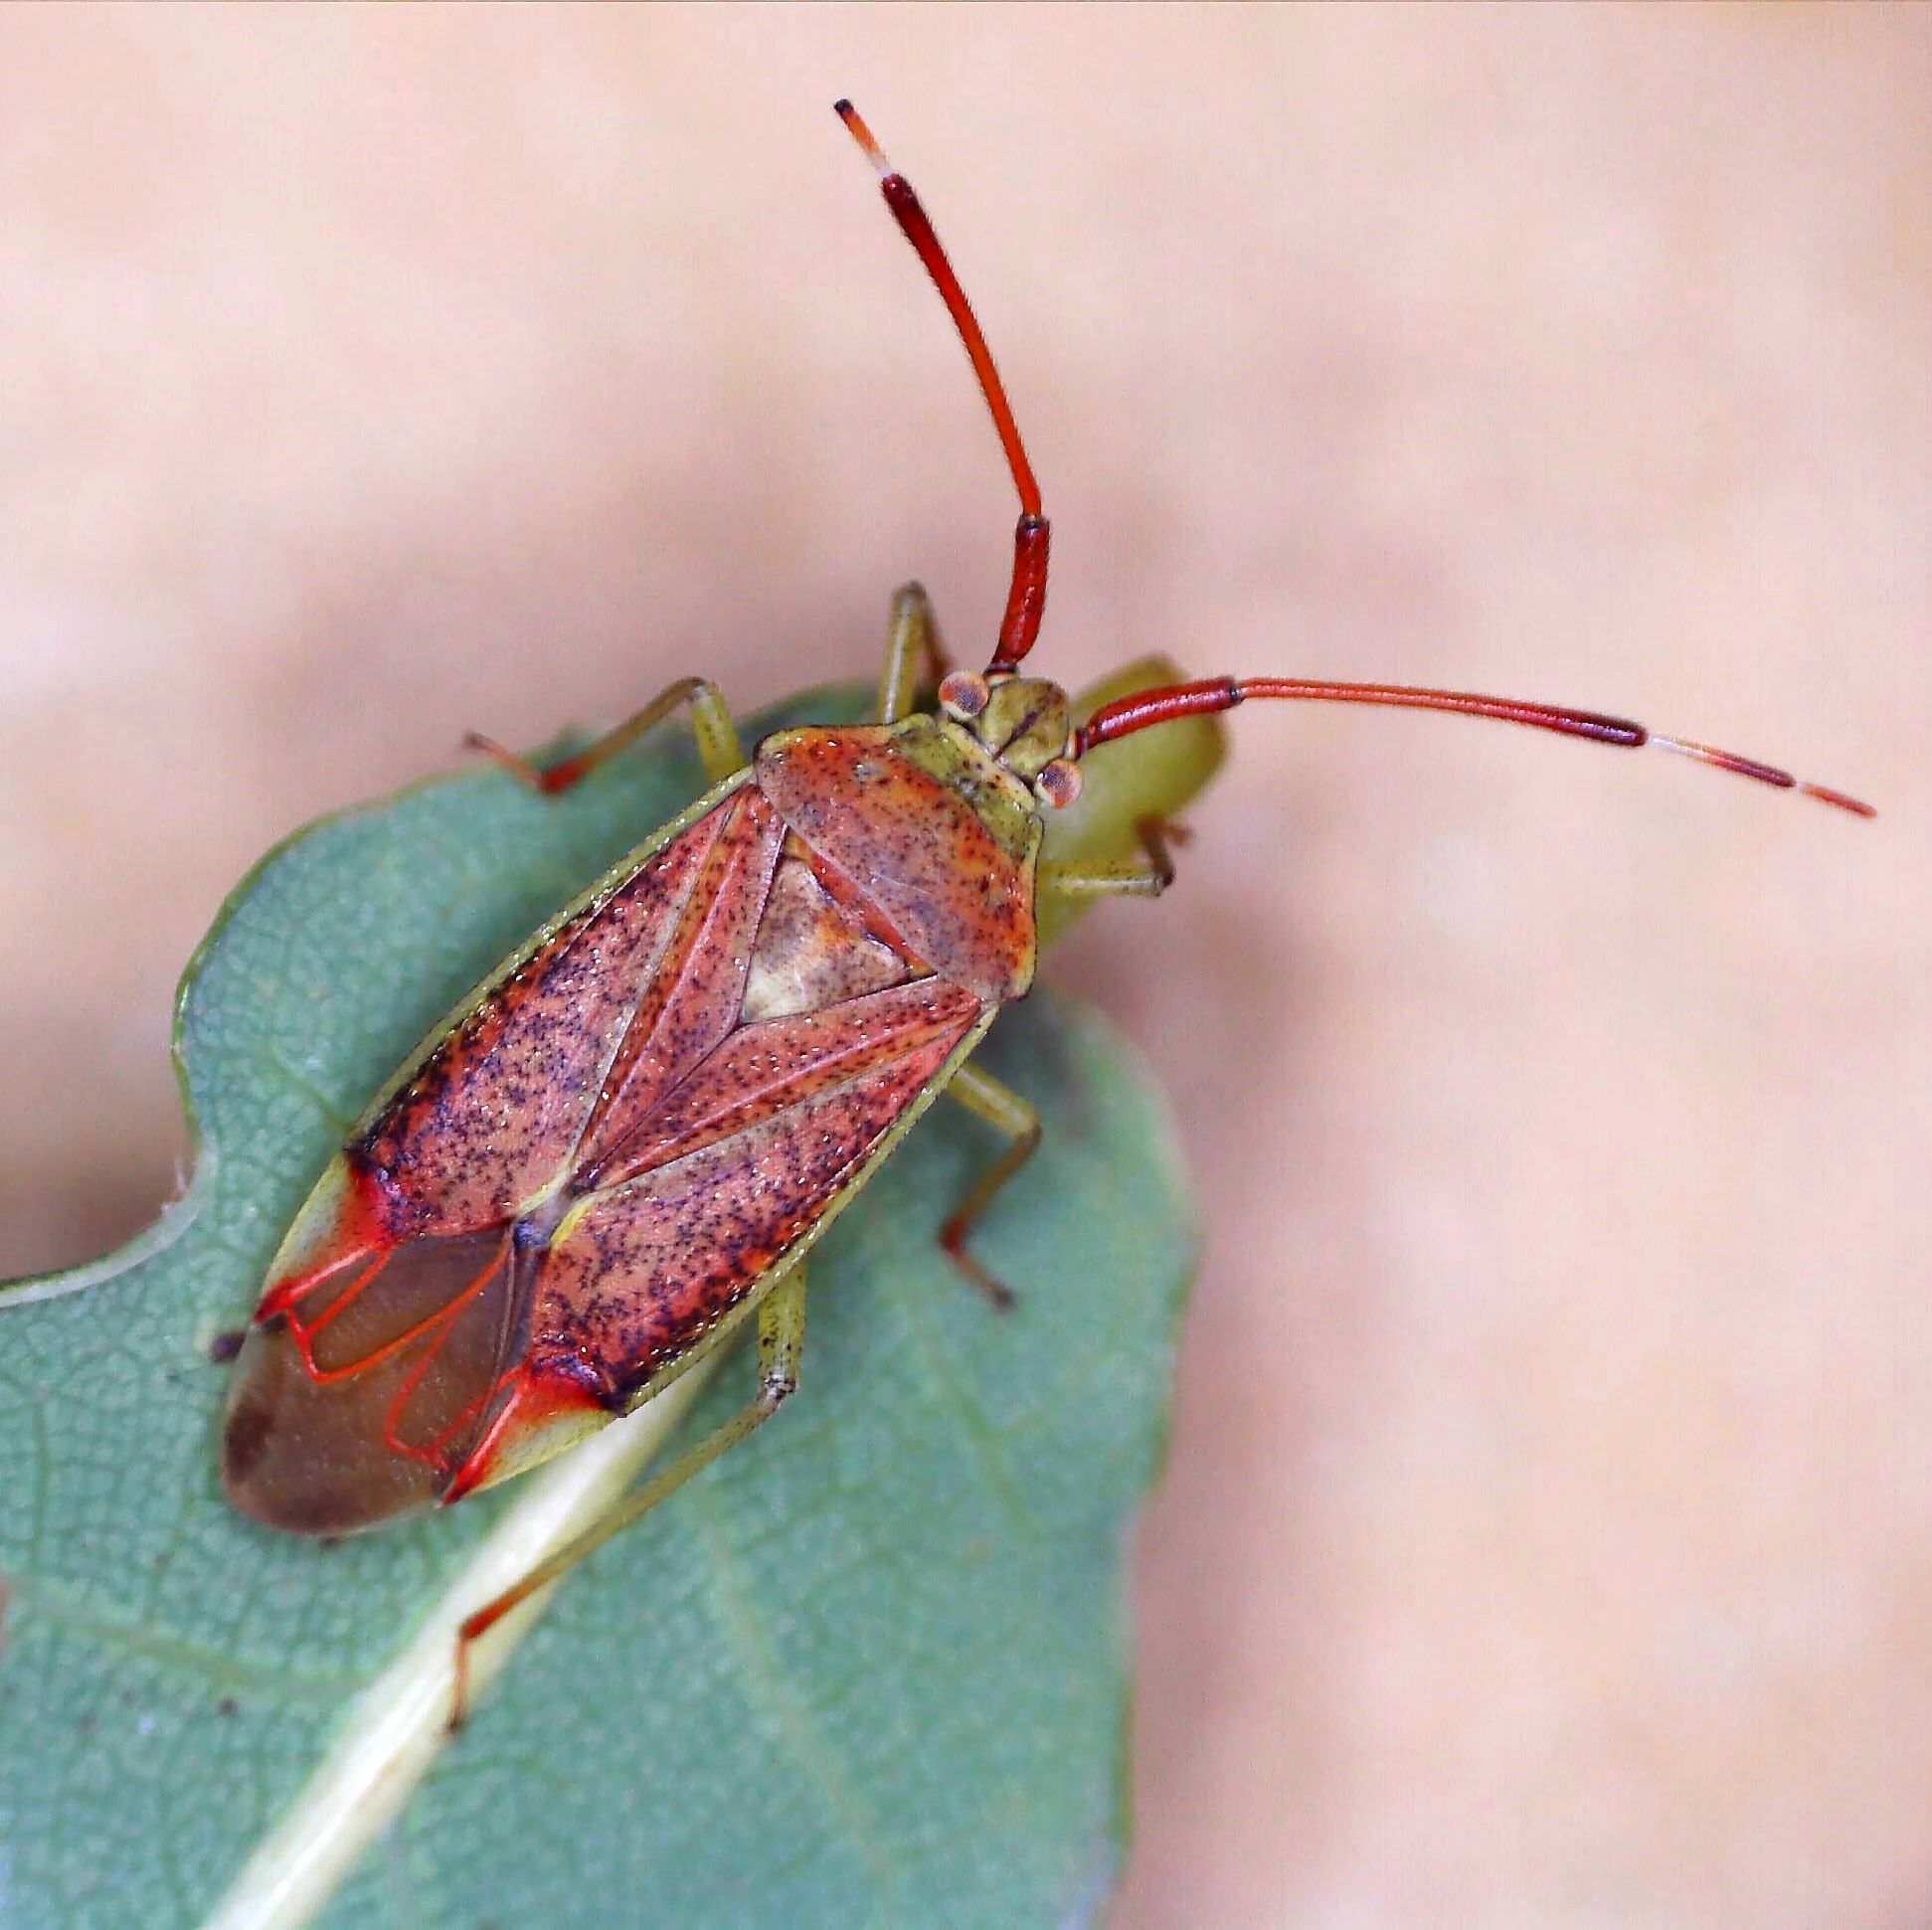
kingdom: Animalia
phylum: Arthropoda
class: Insecta
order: Hemiptera
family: Miridae
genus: Pantilius
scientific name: Pantilius tunicatus
